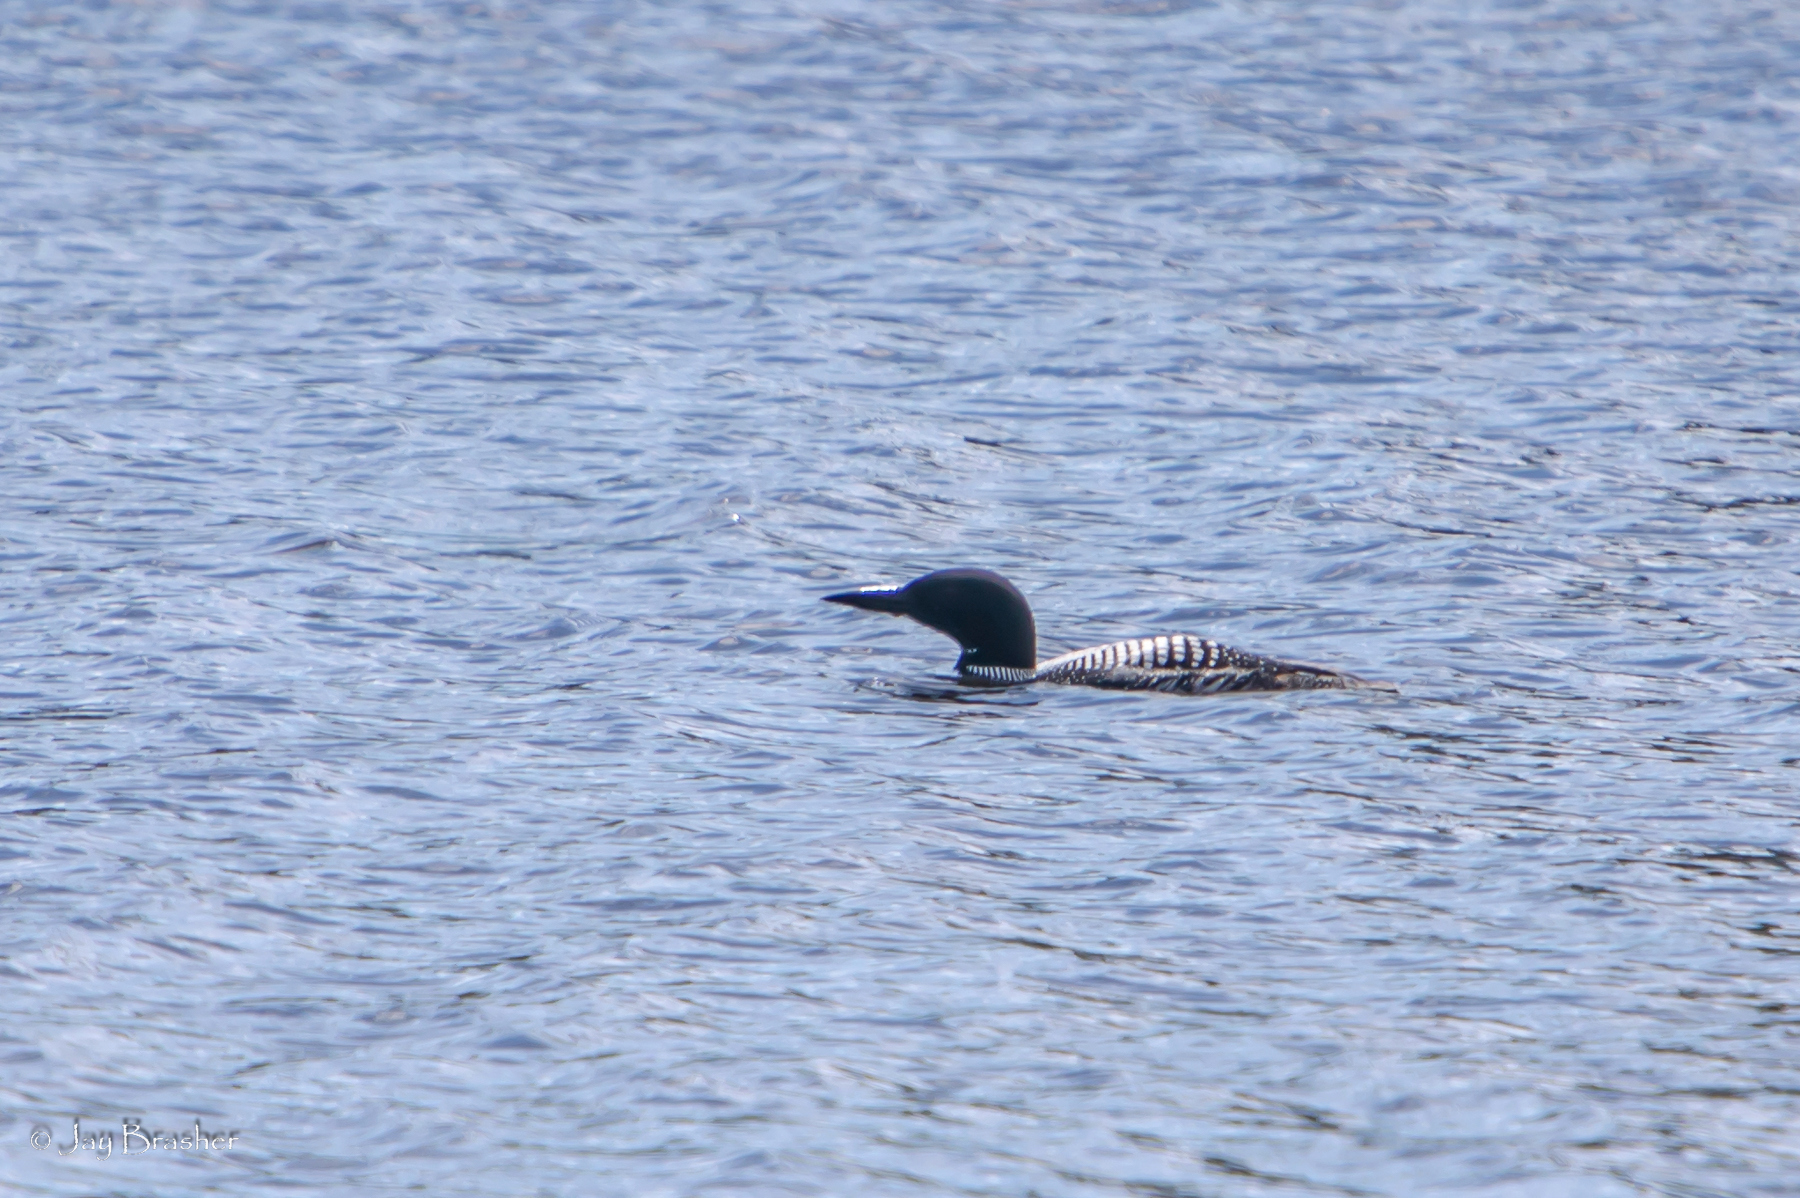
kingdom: Animalia
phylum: Chordata
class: Aves
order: Gaviiformes
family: Gaviidae
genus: Gavia
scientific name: Gavia immer
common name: Common loon
